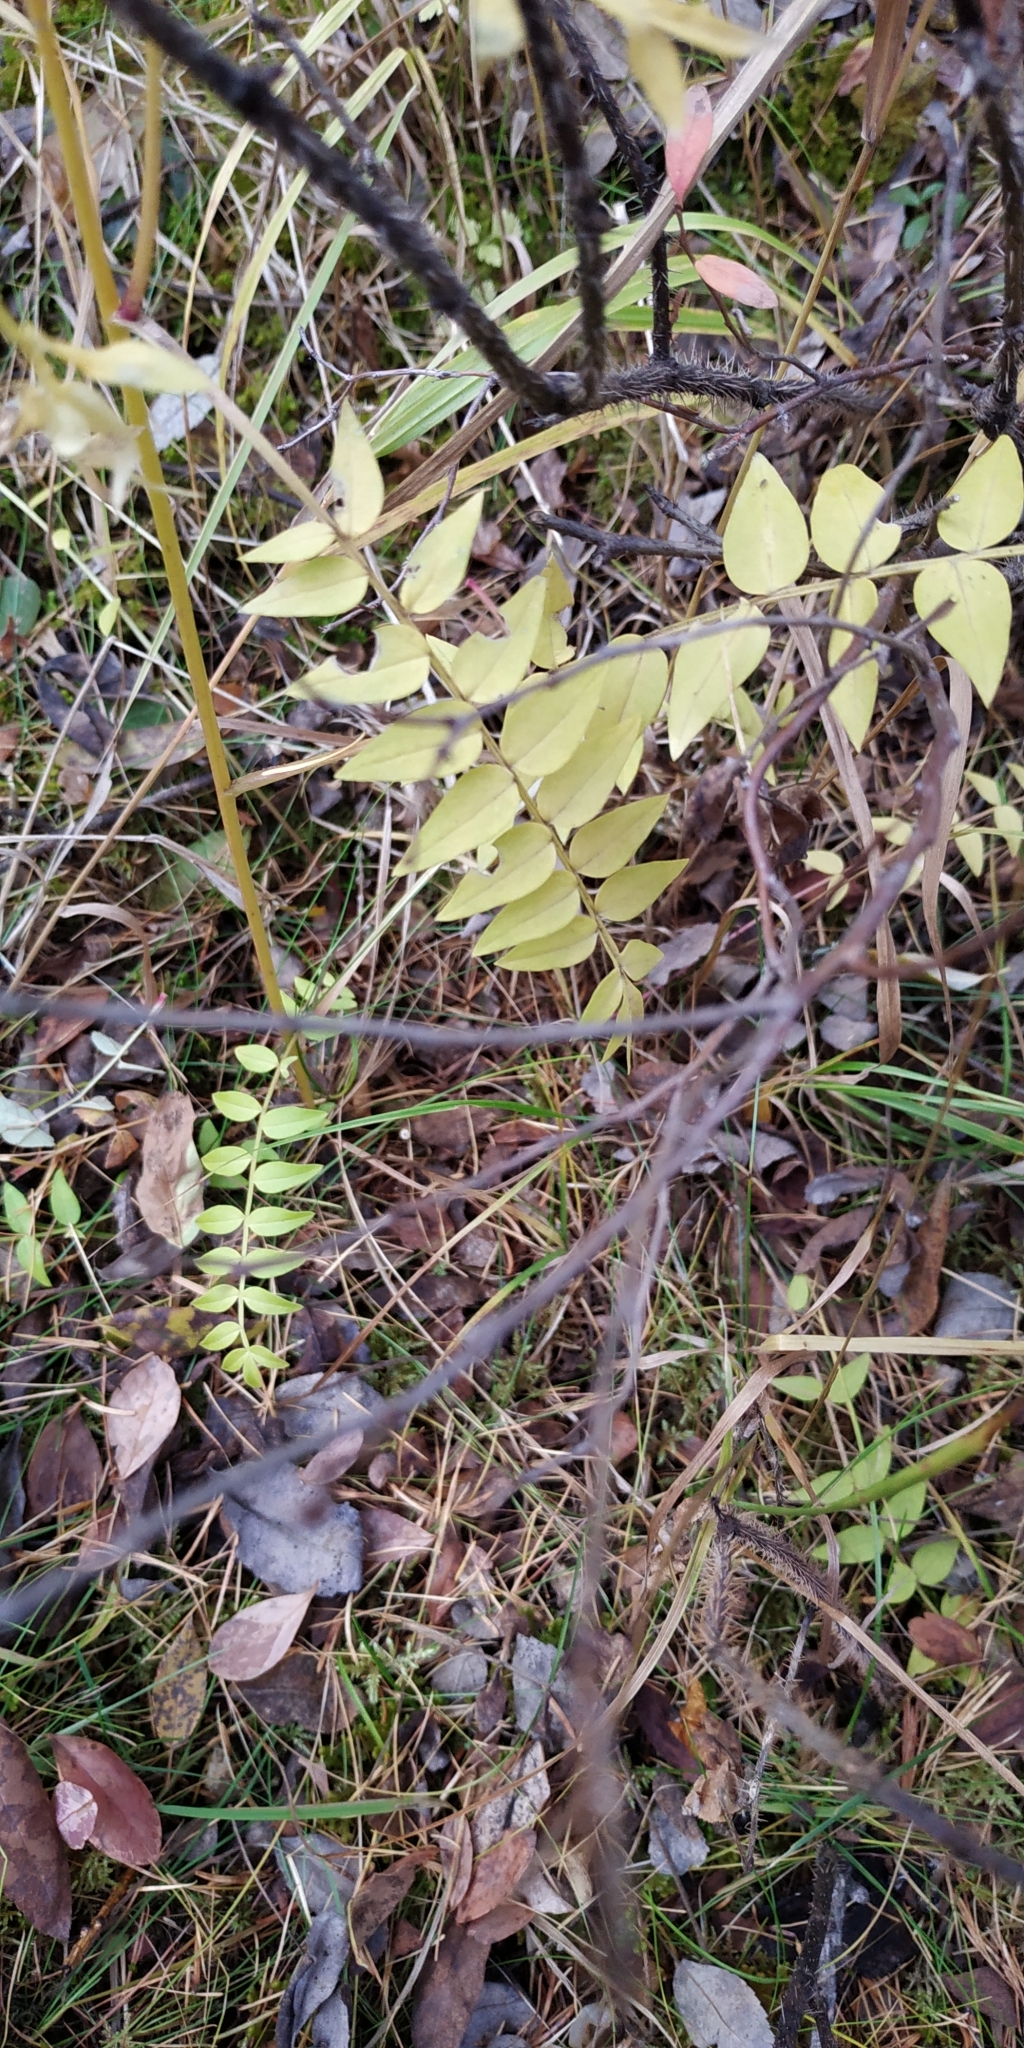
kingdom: Plantae
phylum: Tracheophyta
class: Magnoliopsida
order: Ericales
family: Polemoniaceae
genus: Polemonium
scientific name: Polemonium caeruleum
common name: Jacob's-ladder
